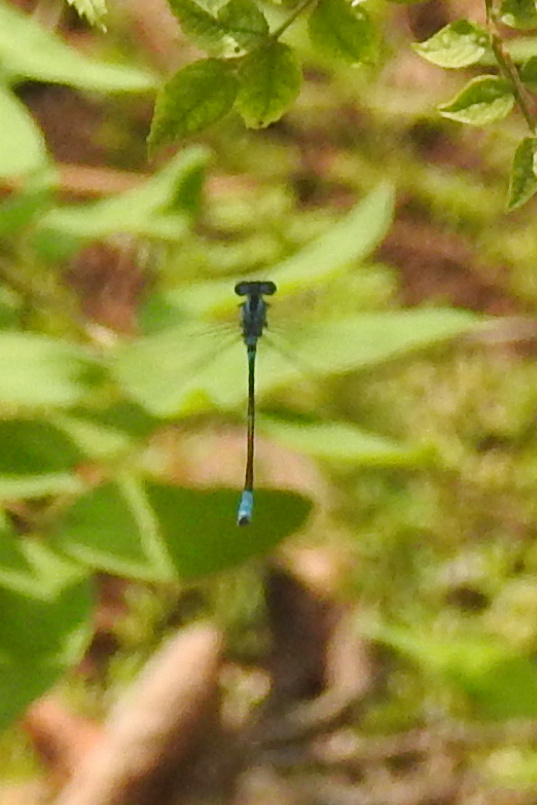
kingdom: Animalia
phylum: Arthropoda
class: Insecta
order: Odonata
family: Coenagrionidae
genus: Enallagma
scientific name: Enallagma aspersum
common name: Azure bluet
